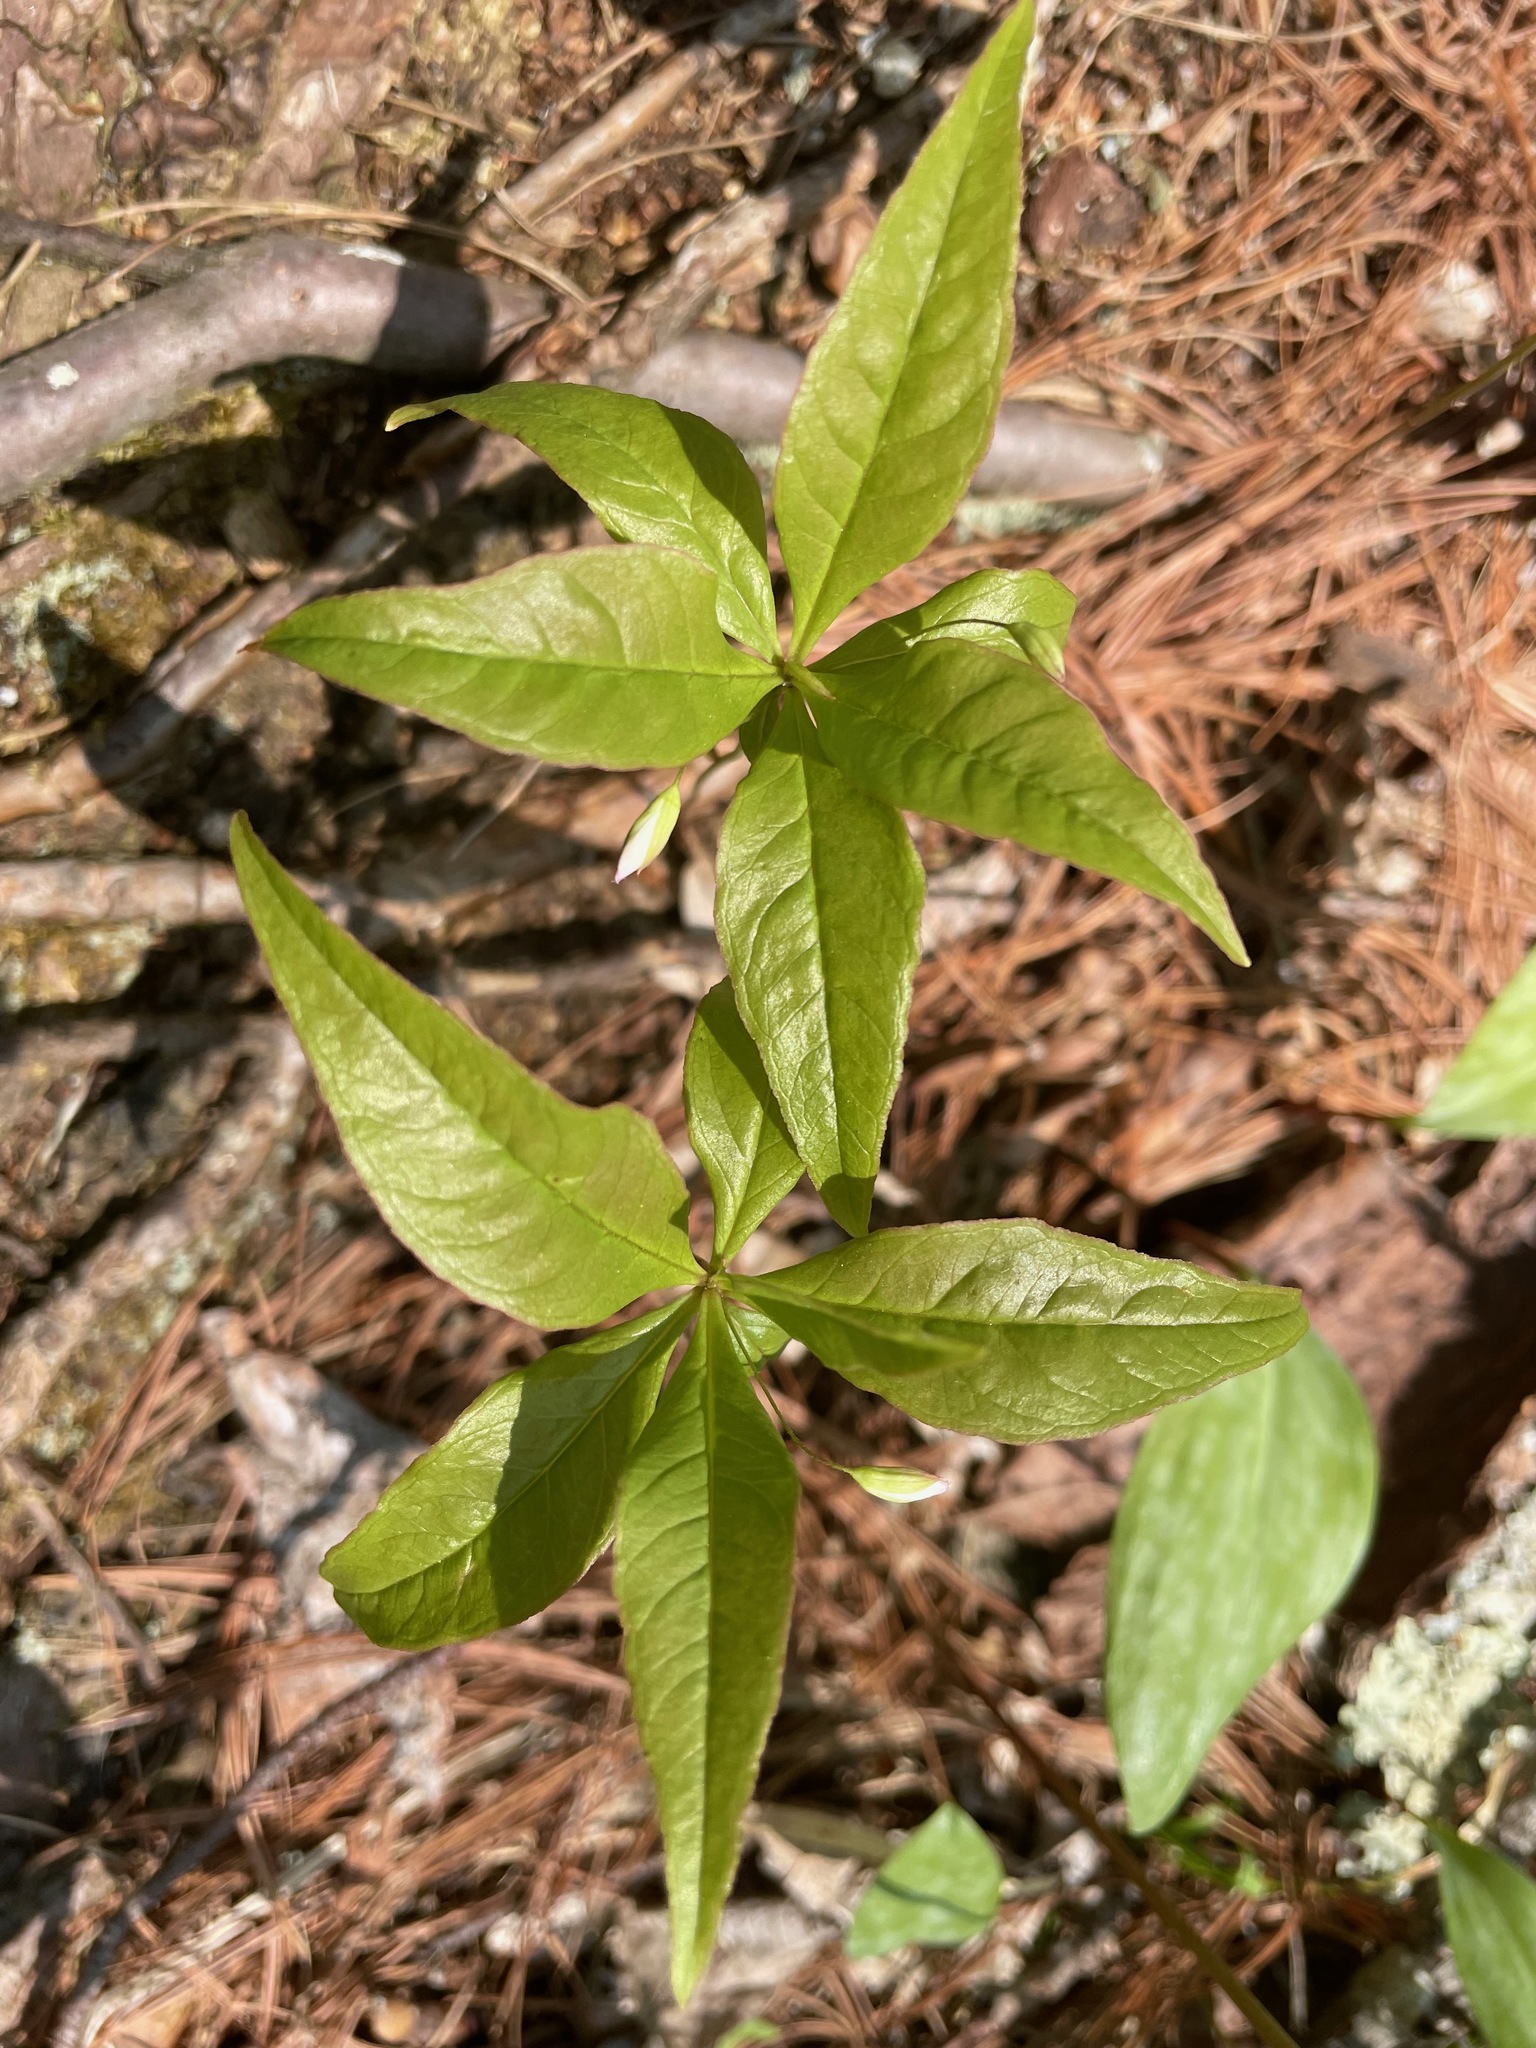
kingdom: Plantae
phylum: Tracheophyta
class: Magnoliopsida
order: Ericales
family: Primulaceae
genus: Lysimachia
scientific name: Lysimachia borealis
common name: American starflower
